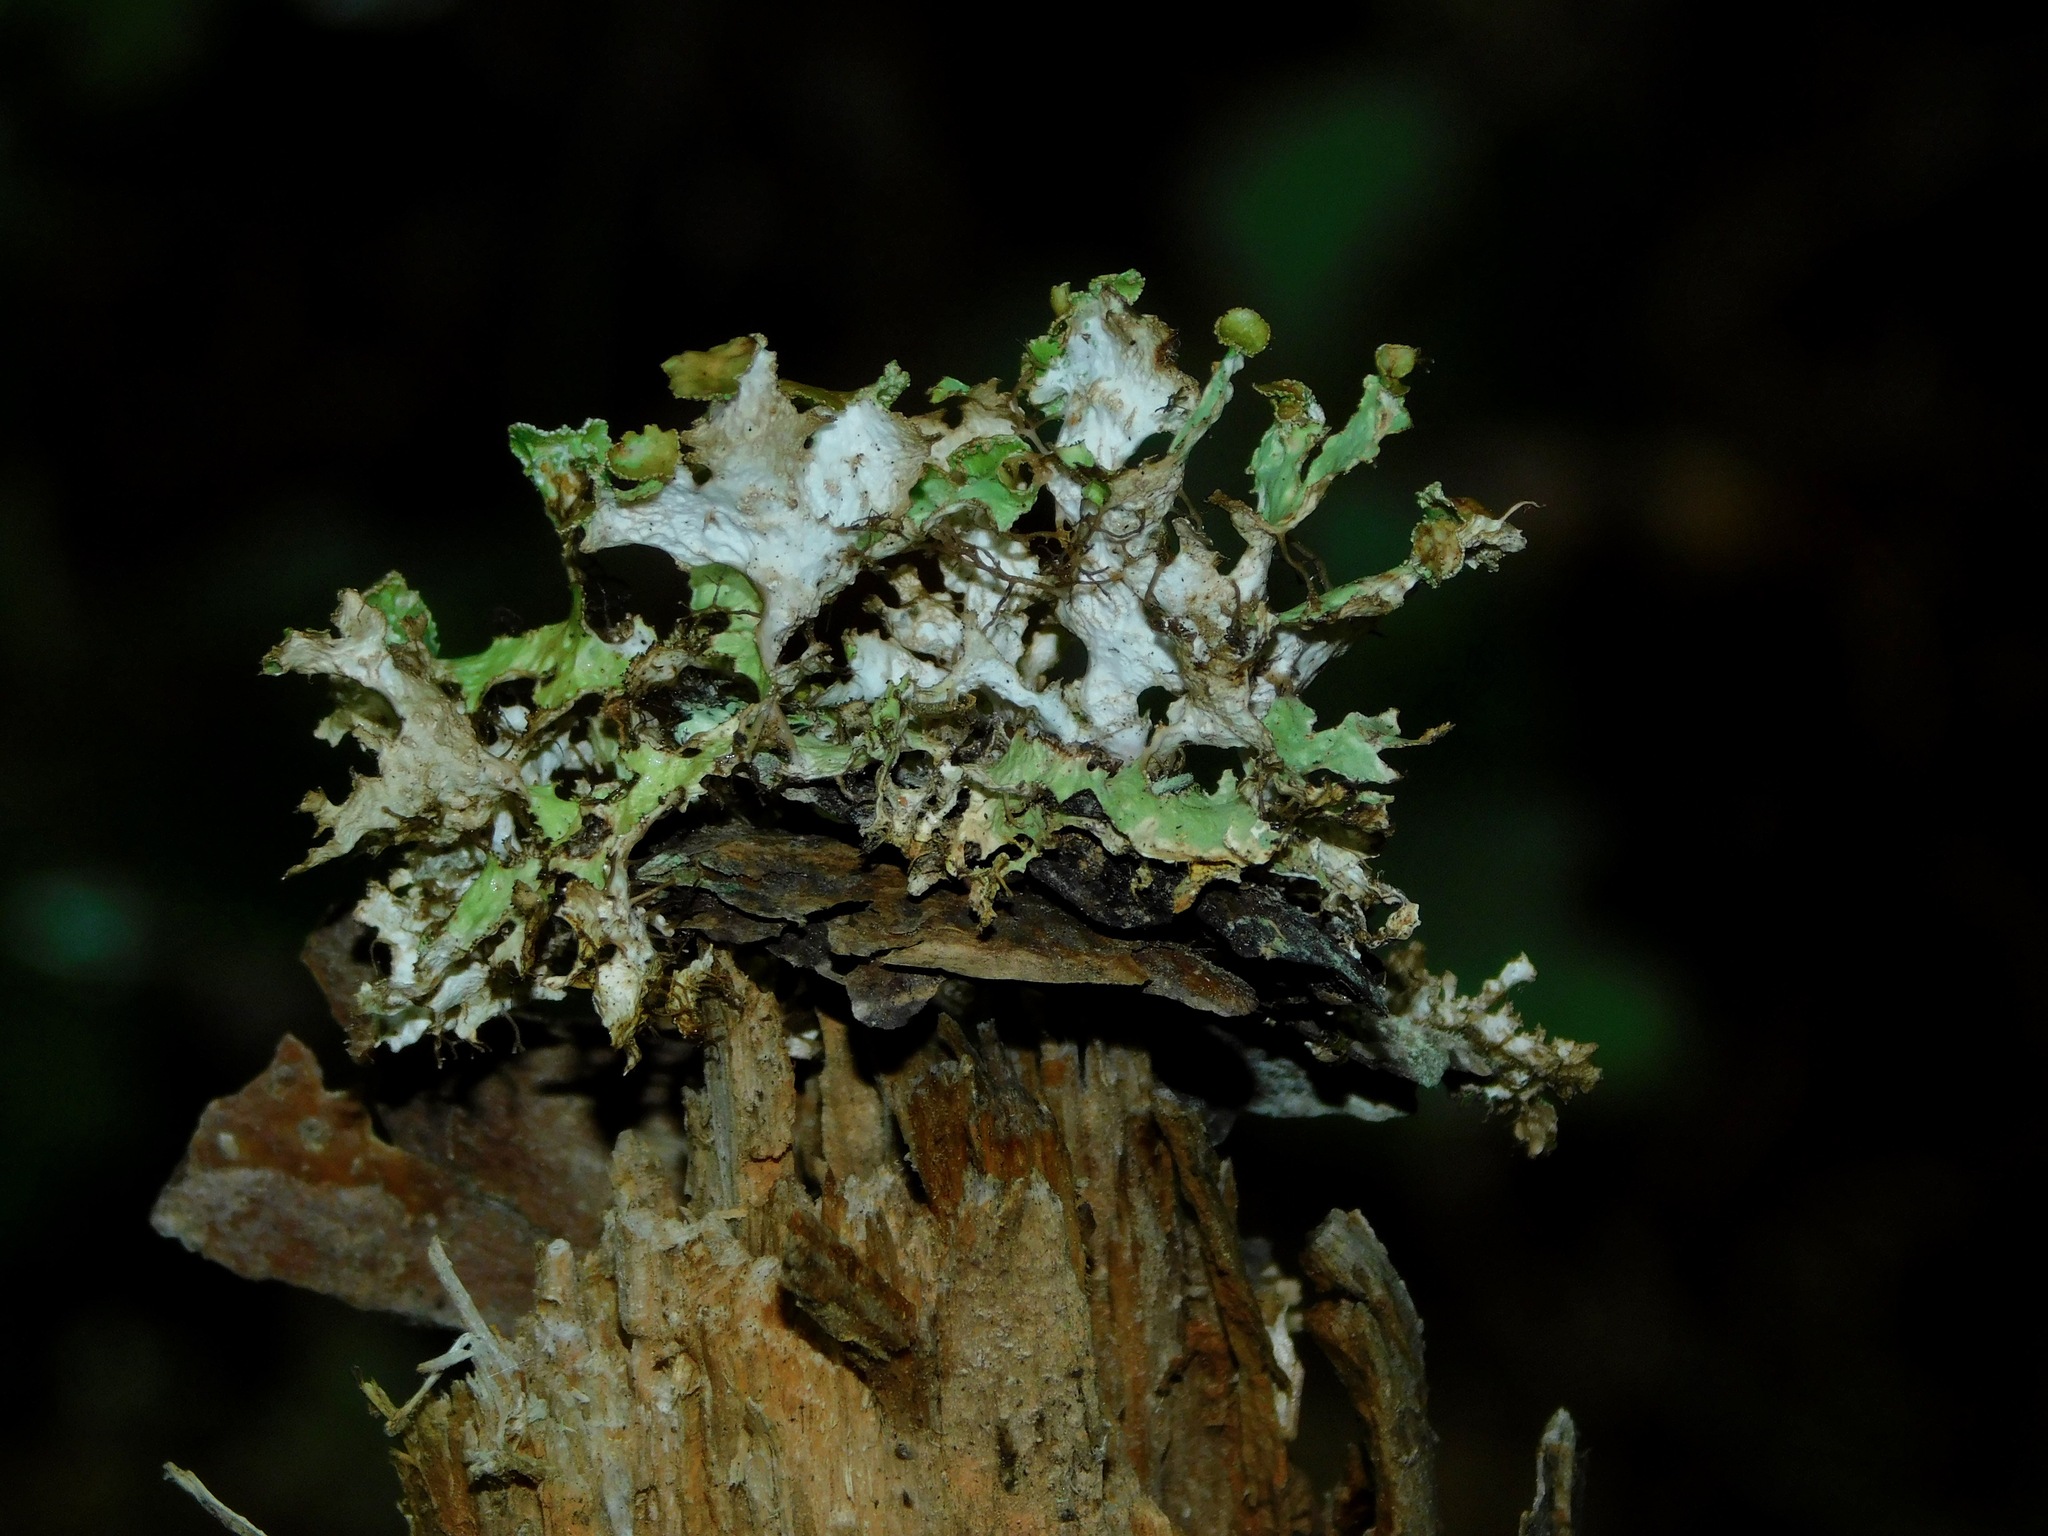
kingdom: Fungi
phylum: Ascomycota
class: Lecanoromycetes
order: Lecanorales
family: Parmeliaceae
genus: Tuckermannopsis
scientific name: Tuckermannopsis ciliaris
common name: Ciliate wrinkle-lichen
